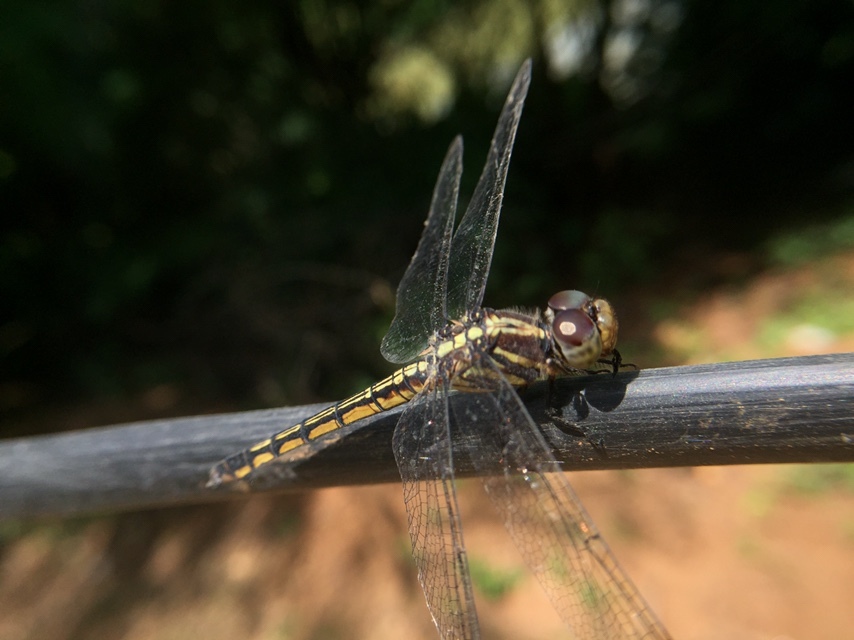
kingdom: Animalia
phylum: Arthropoda
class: Insecta
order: Odonata
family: Libellulidae
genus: Potamarcha
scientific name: Potamarcha congener
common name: Blue chaser
